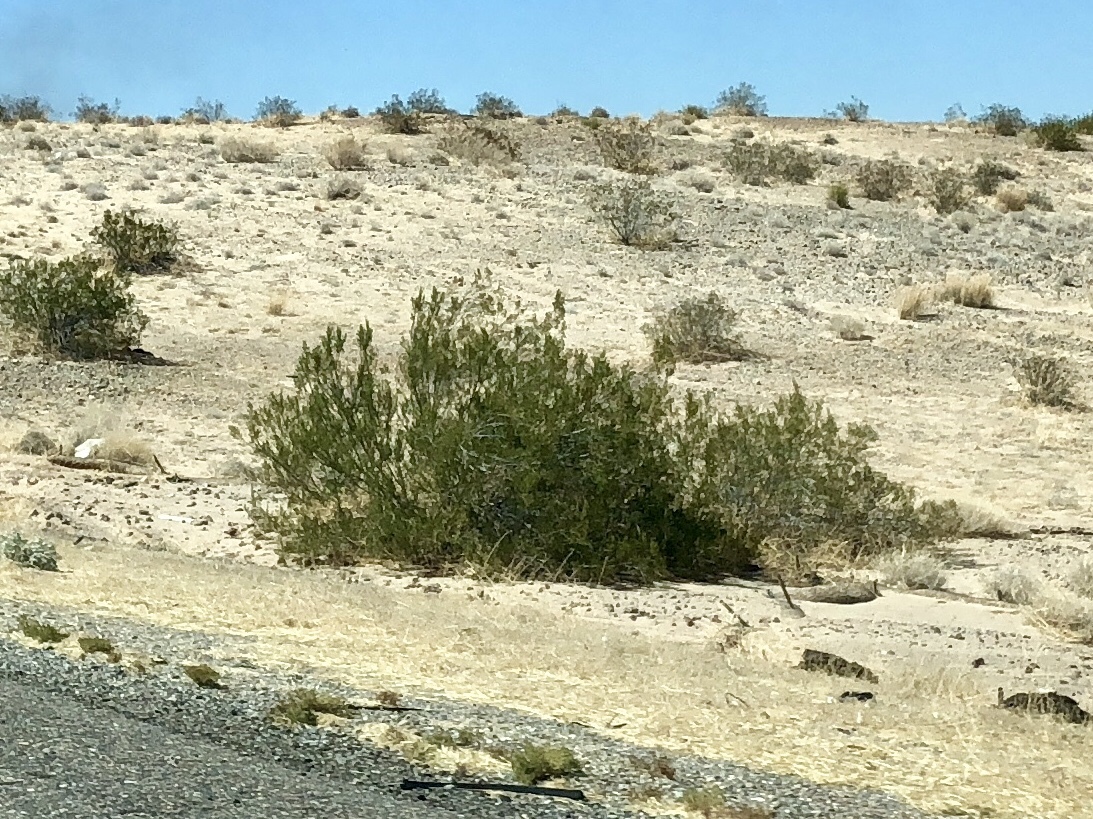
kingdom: Plantae
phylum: Tracheophyta
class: Magnoliopsida
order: Zygophyllales
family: Zygophyllaceae
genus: Larrea
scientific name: Larrea tridentata
